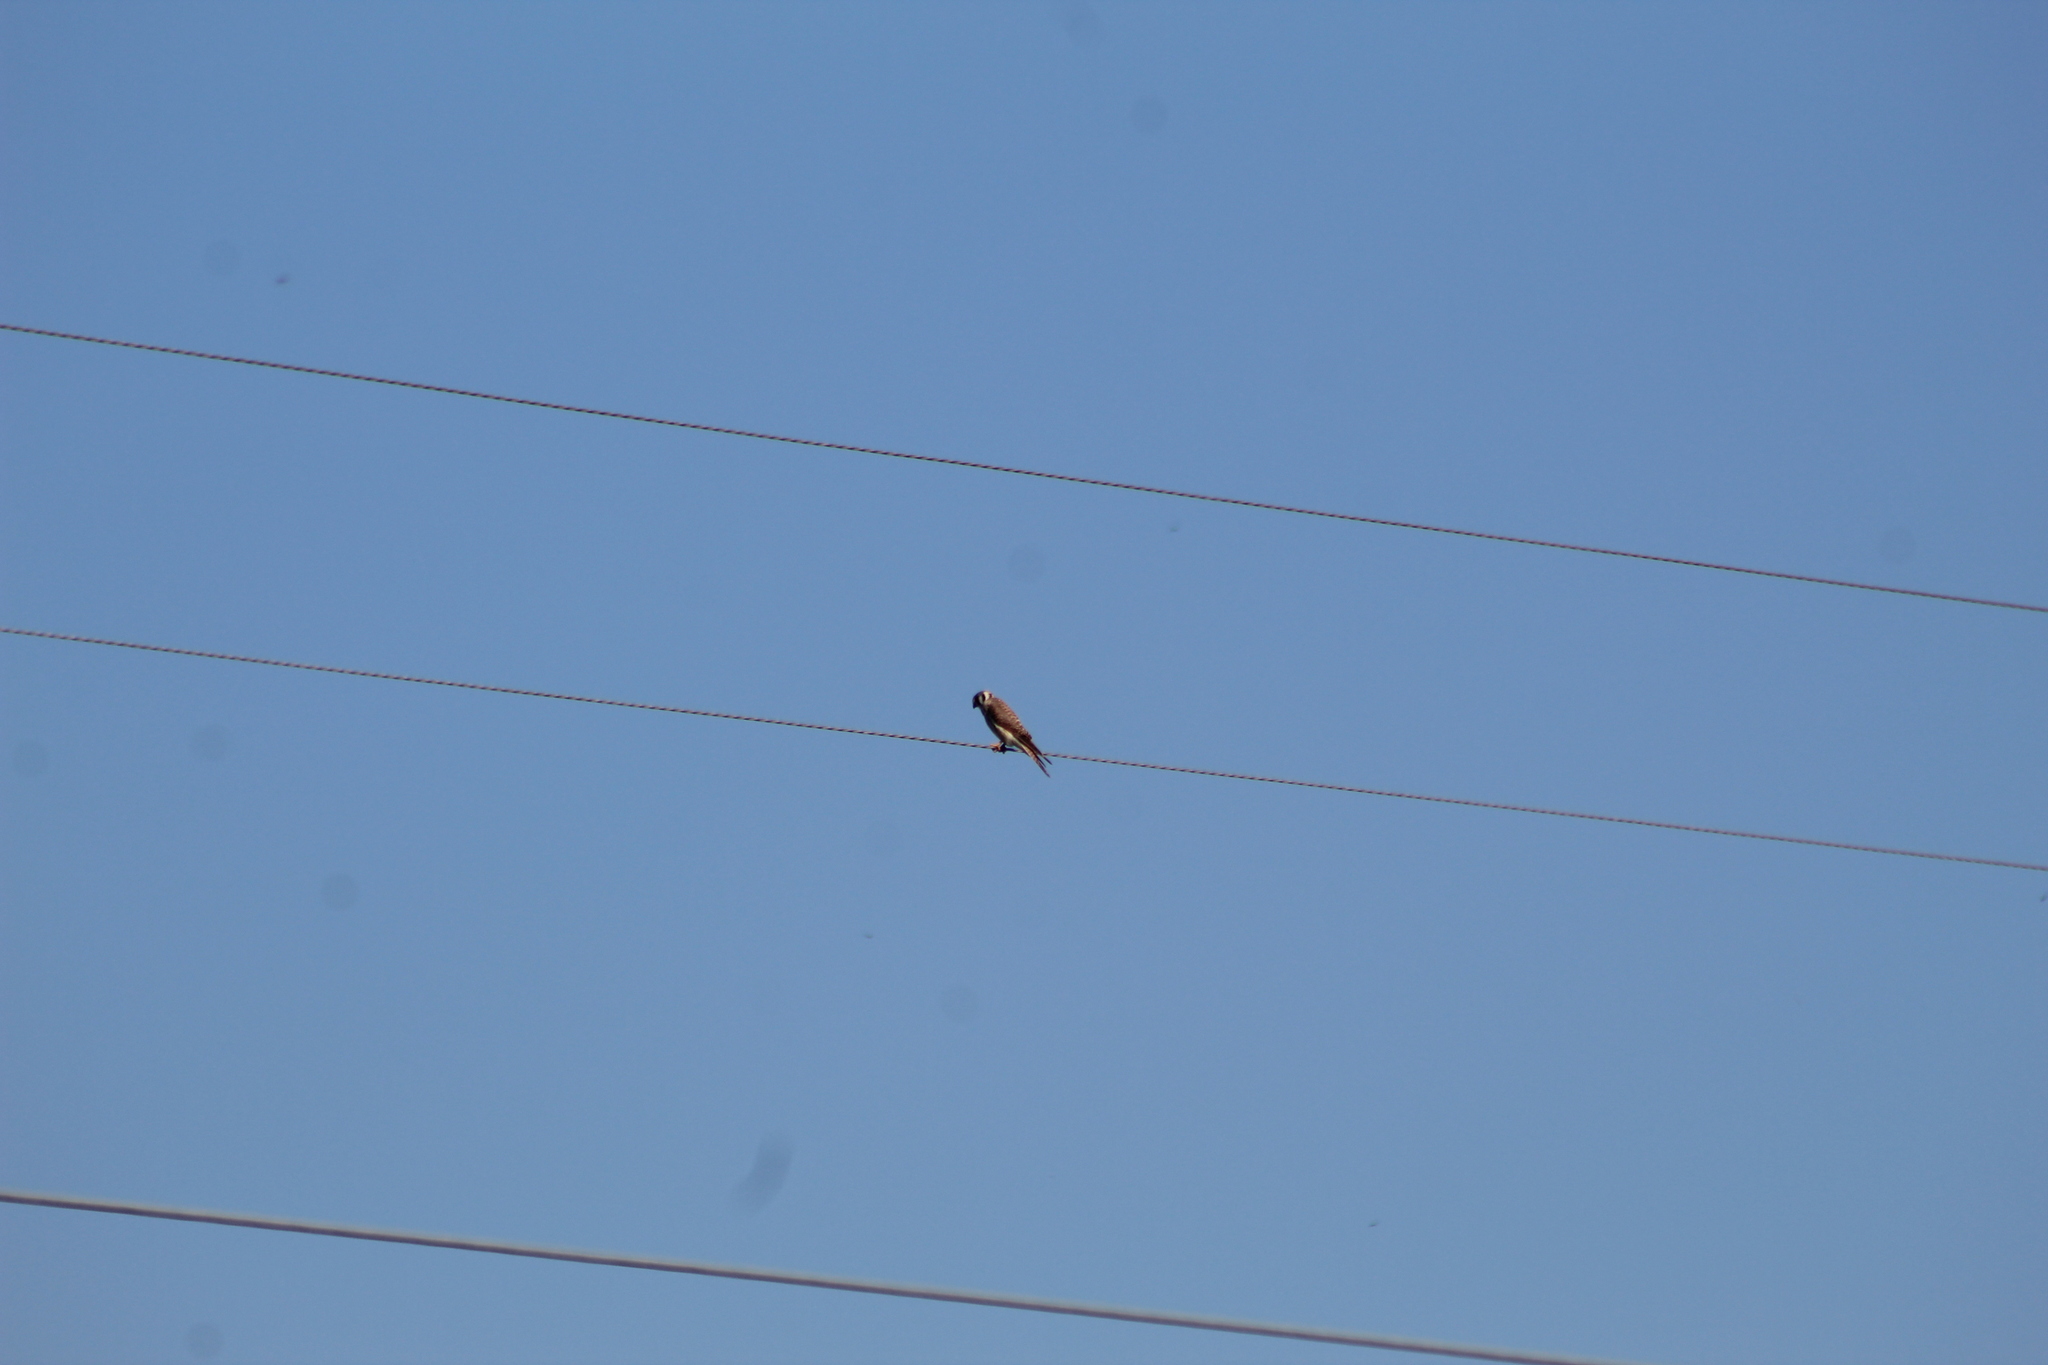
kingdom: Animalia
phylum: Chordata
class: Aves
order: Falconiformes
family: Falconidae
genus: Falco
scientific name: Falco sparverius
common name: American kestrel
